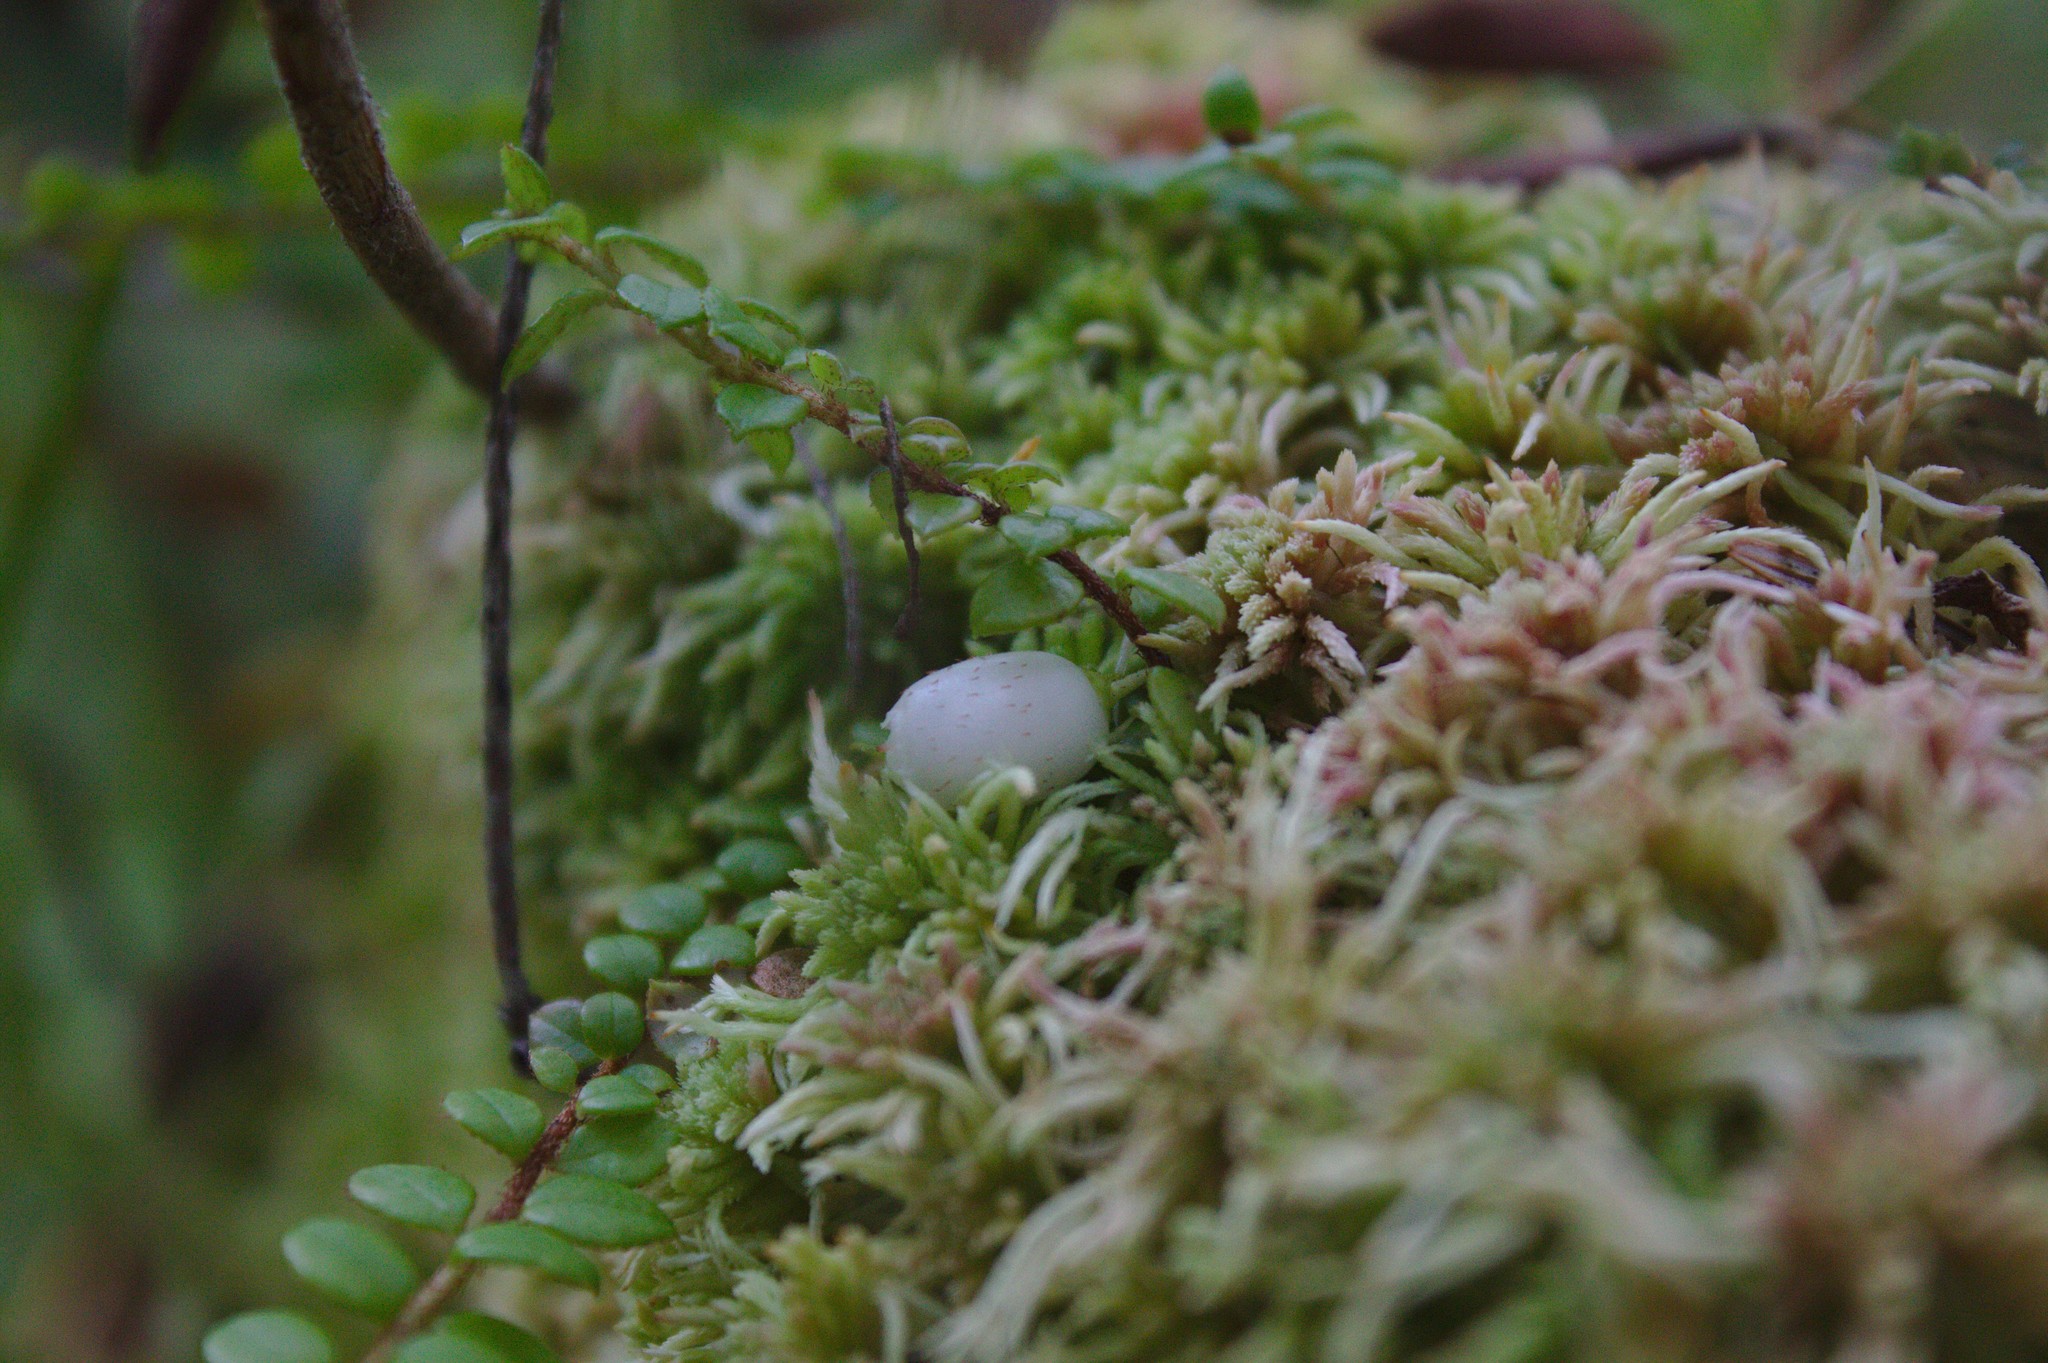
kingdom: Plantae
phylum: Tracheophyta
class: Magnoliopsida
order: Ericales
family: Ericaceae
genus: Gaultheria
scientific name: Gaultheria hispidula
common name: Cancer wintergreen
